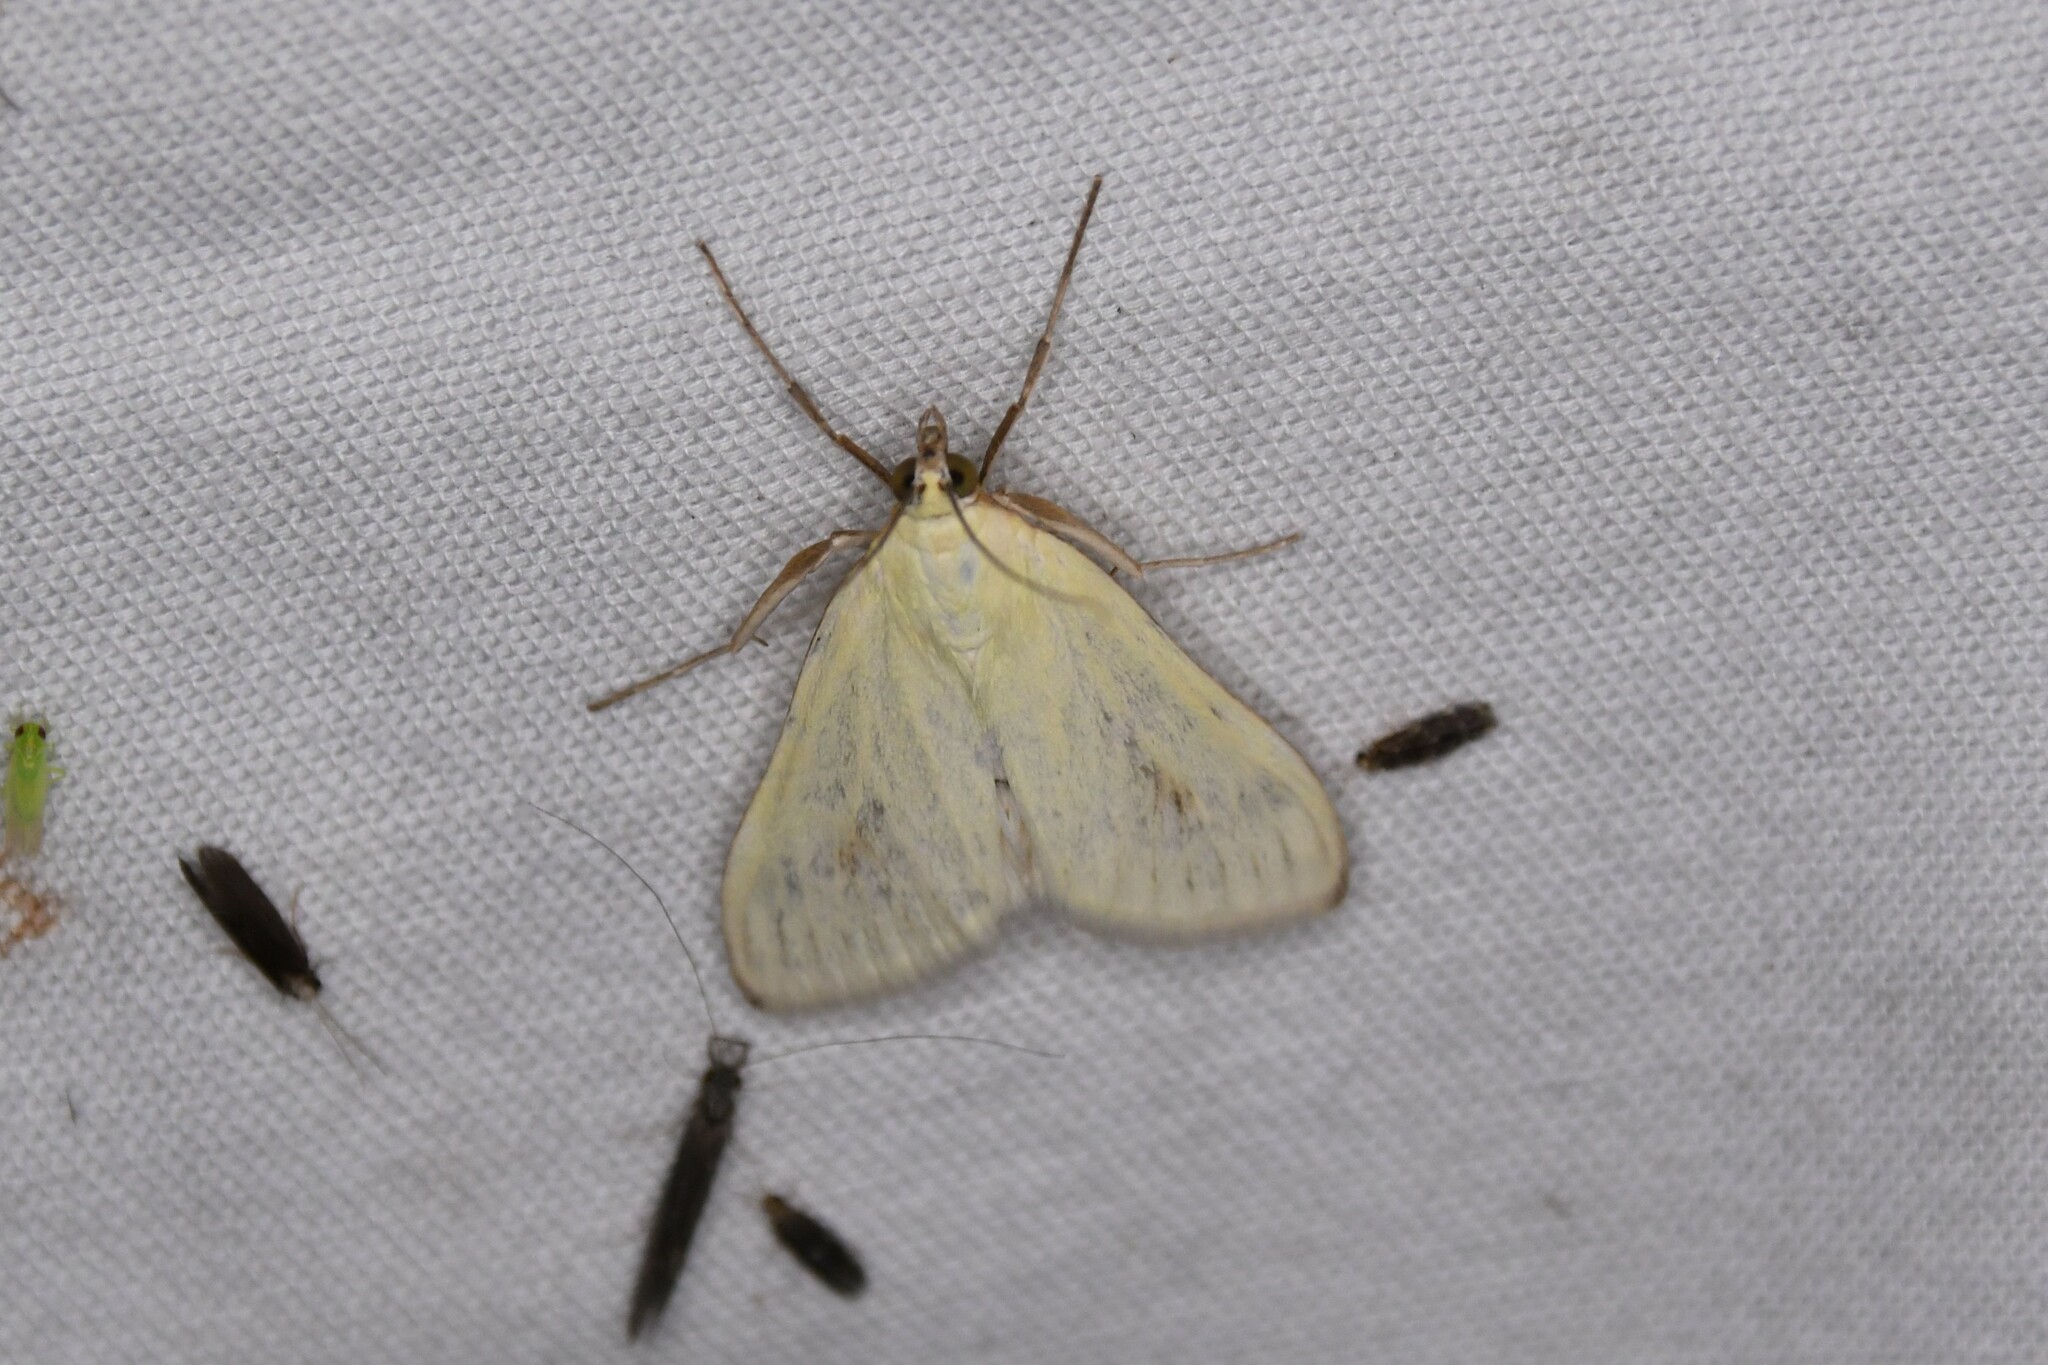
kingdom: Animalia
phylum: Arthropoda
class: Insecta
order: Lepidoptera
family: Crambidae
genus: Sitochroa
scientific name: Sitochroa palealis
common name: Greenish-yellow sitochroa moth
